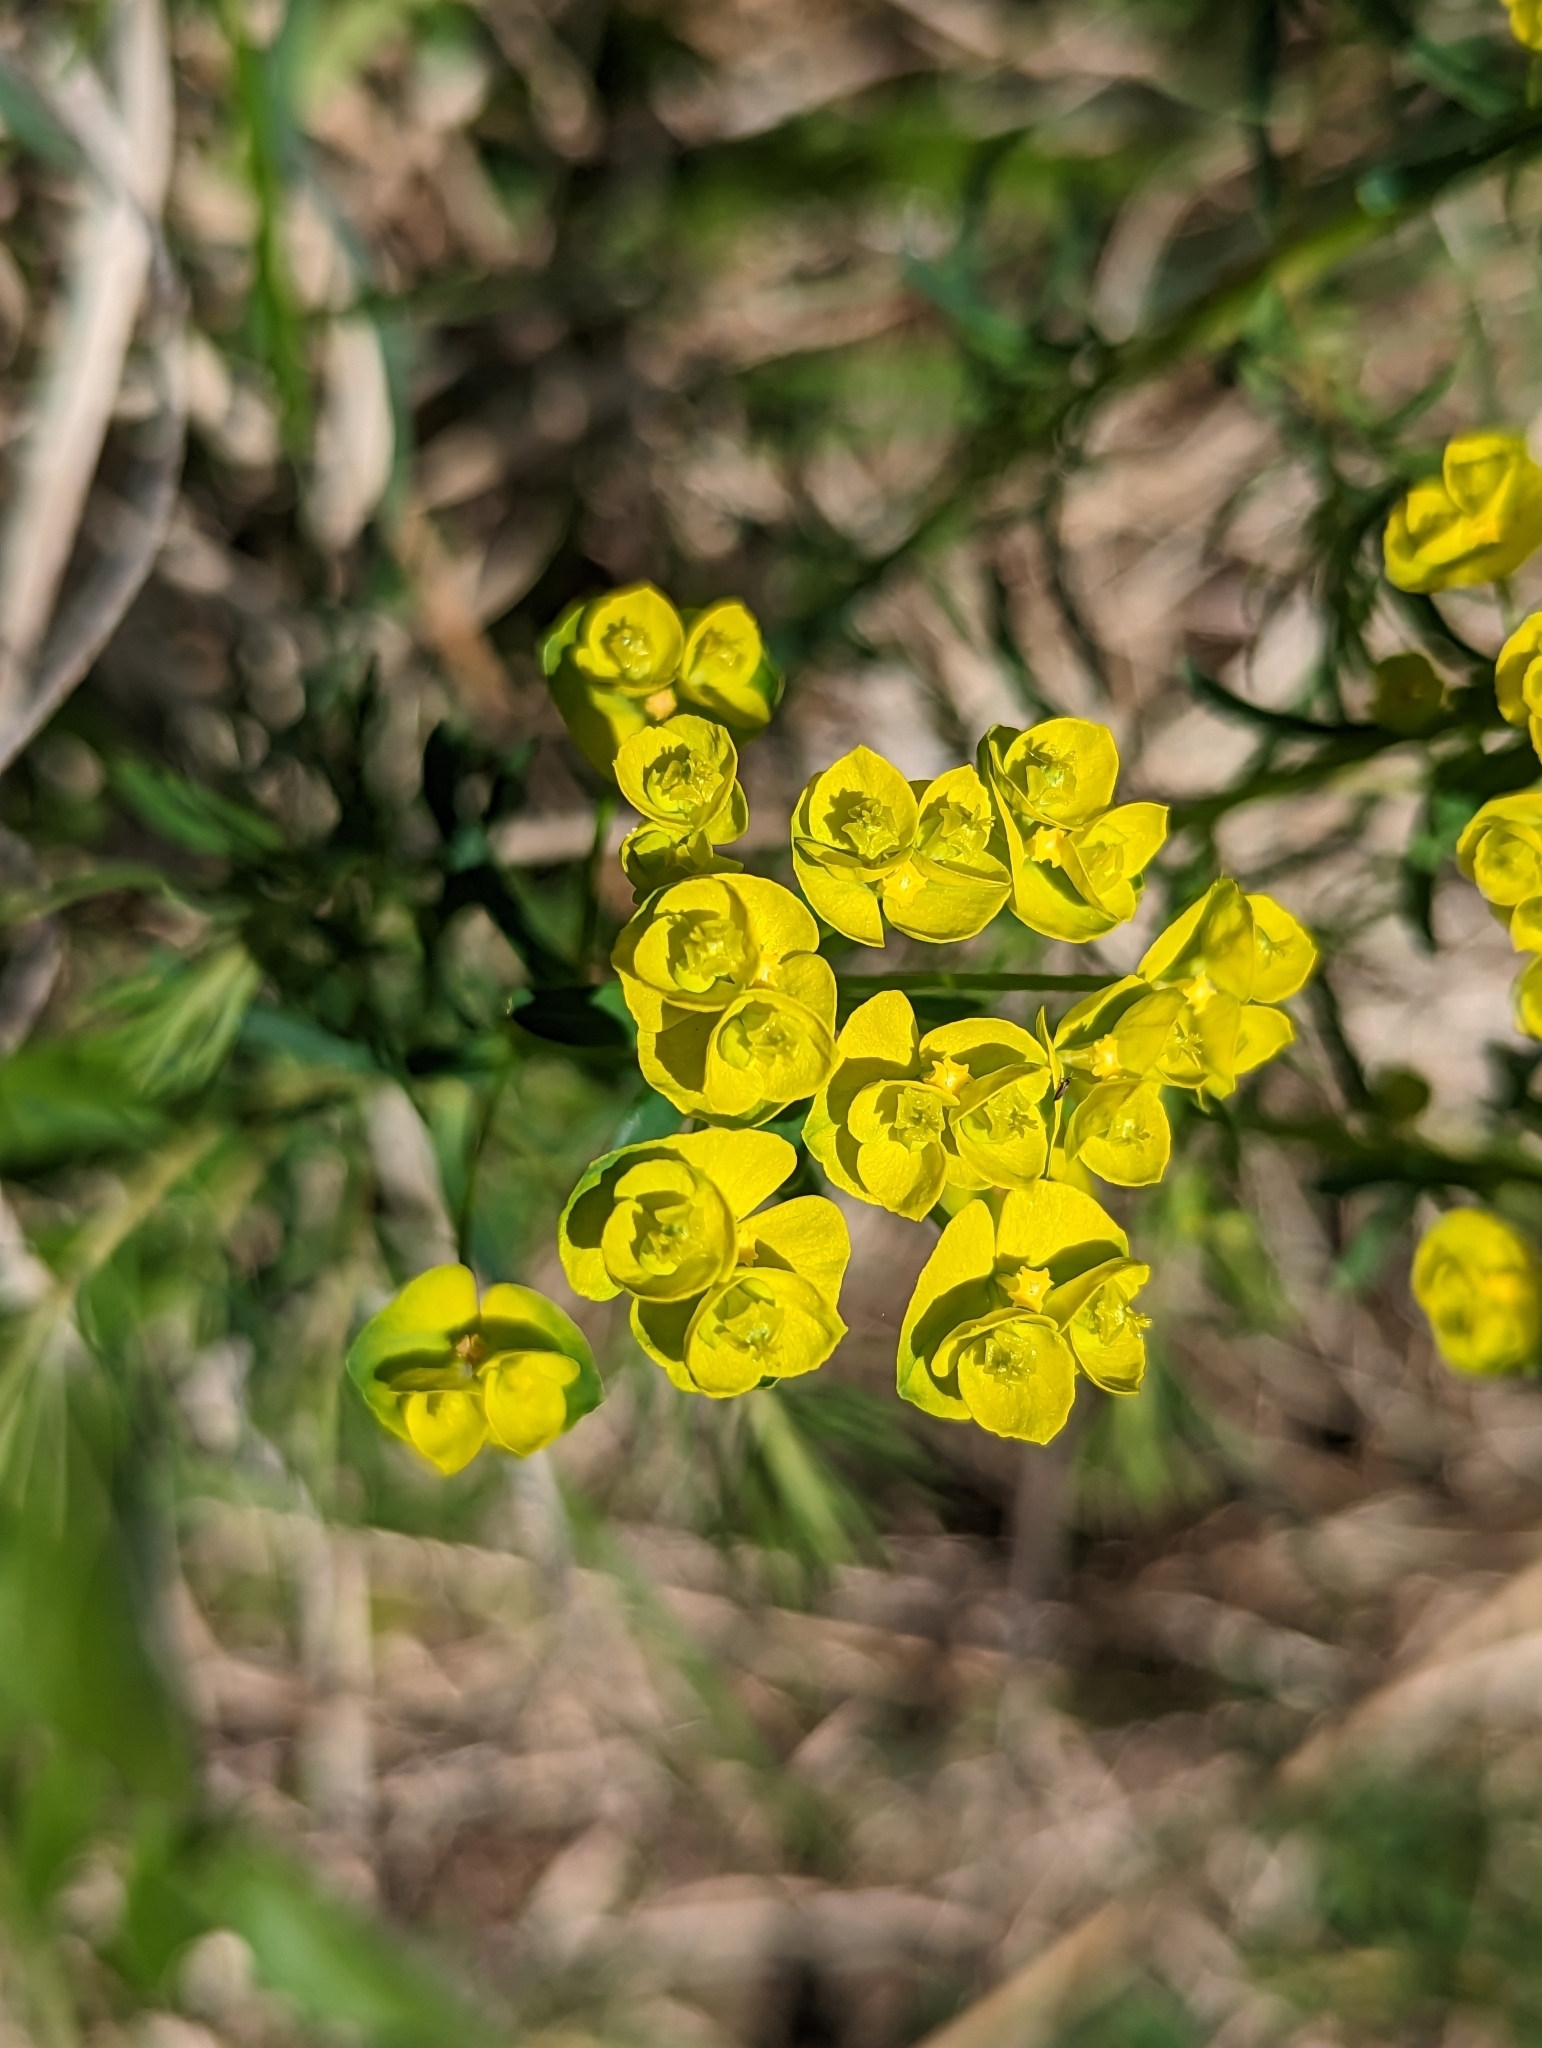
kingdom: Plantae
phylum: Tracheophyta
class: Magnoliopsida
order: Malpighiales
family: Euphorbiaceae
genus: Euphorbia
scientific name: Euphorbia cyparissias
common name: Cypress spurge
